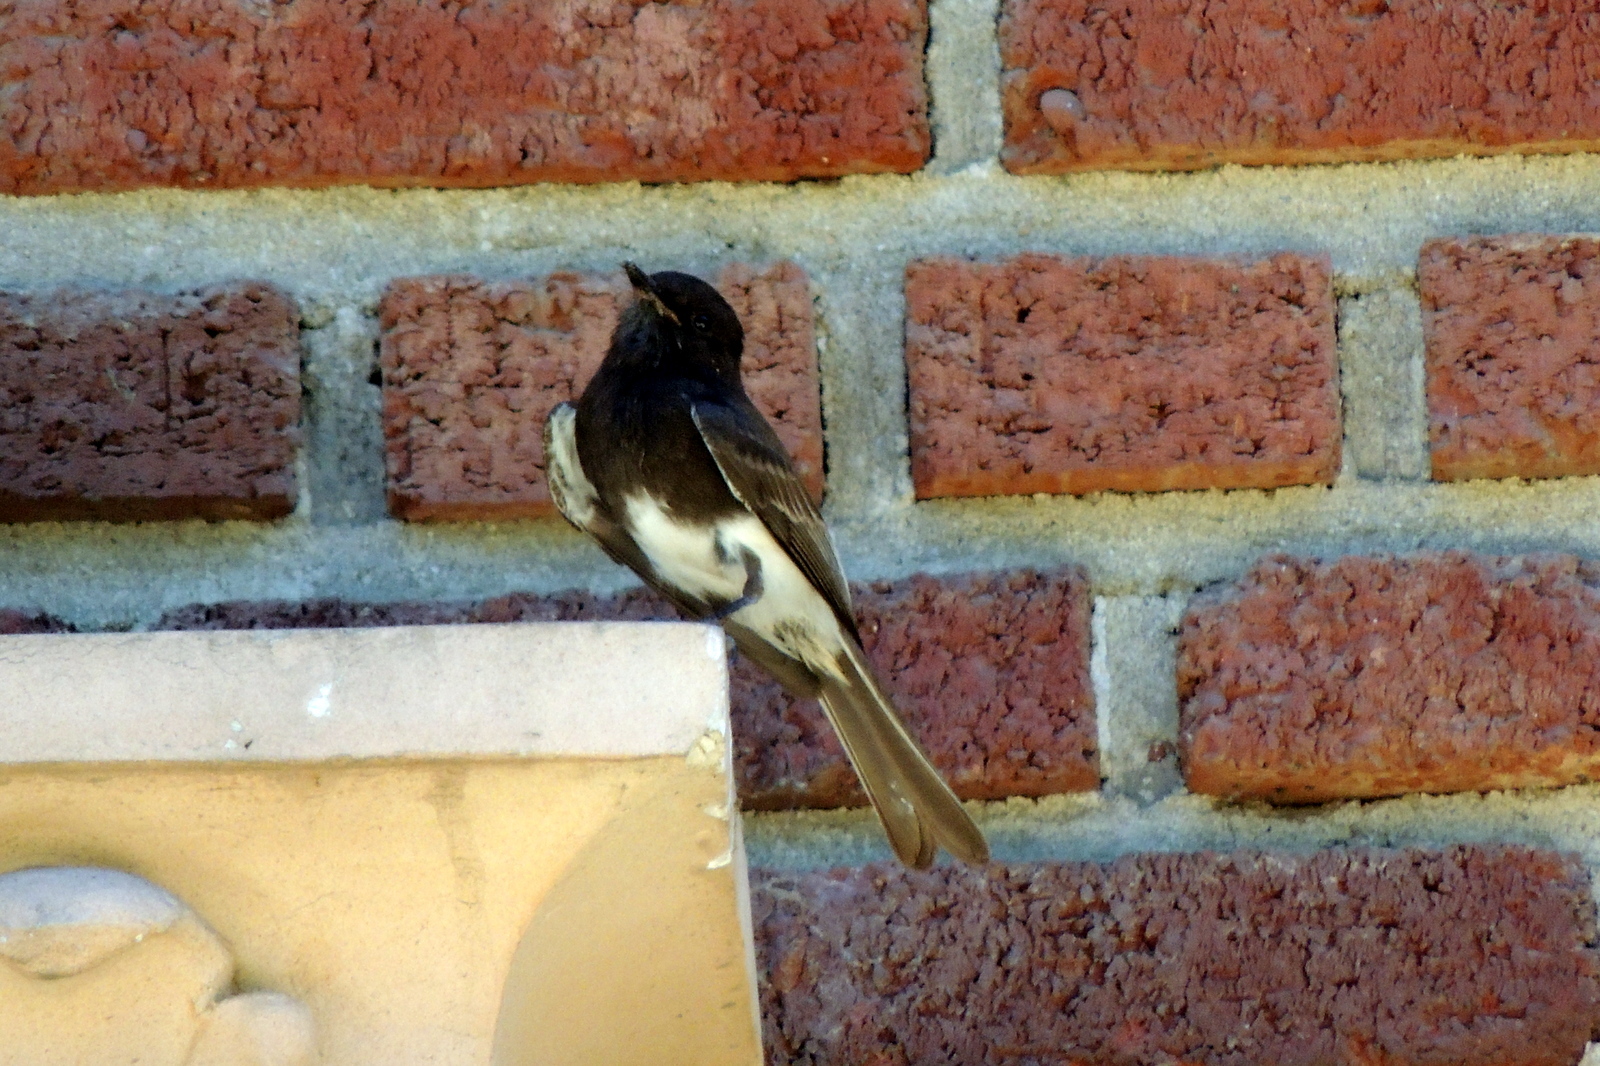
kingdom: Animalia
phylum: Chordata
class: Aves
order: Passeriformes
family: Tyrannidae
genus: Sayornis
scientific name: Sayornis nigricans
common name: Black phoebe
